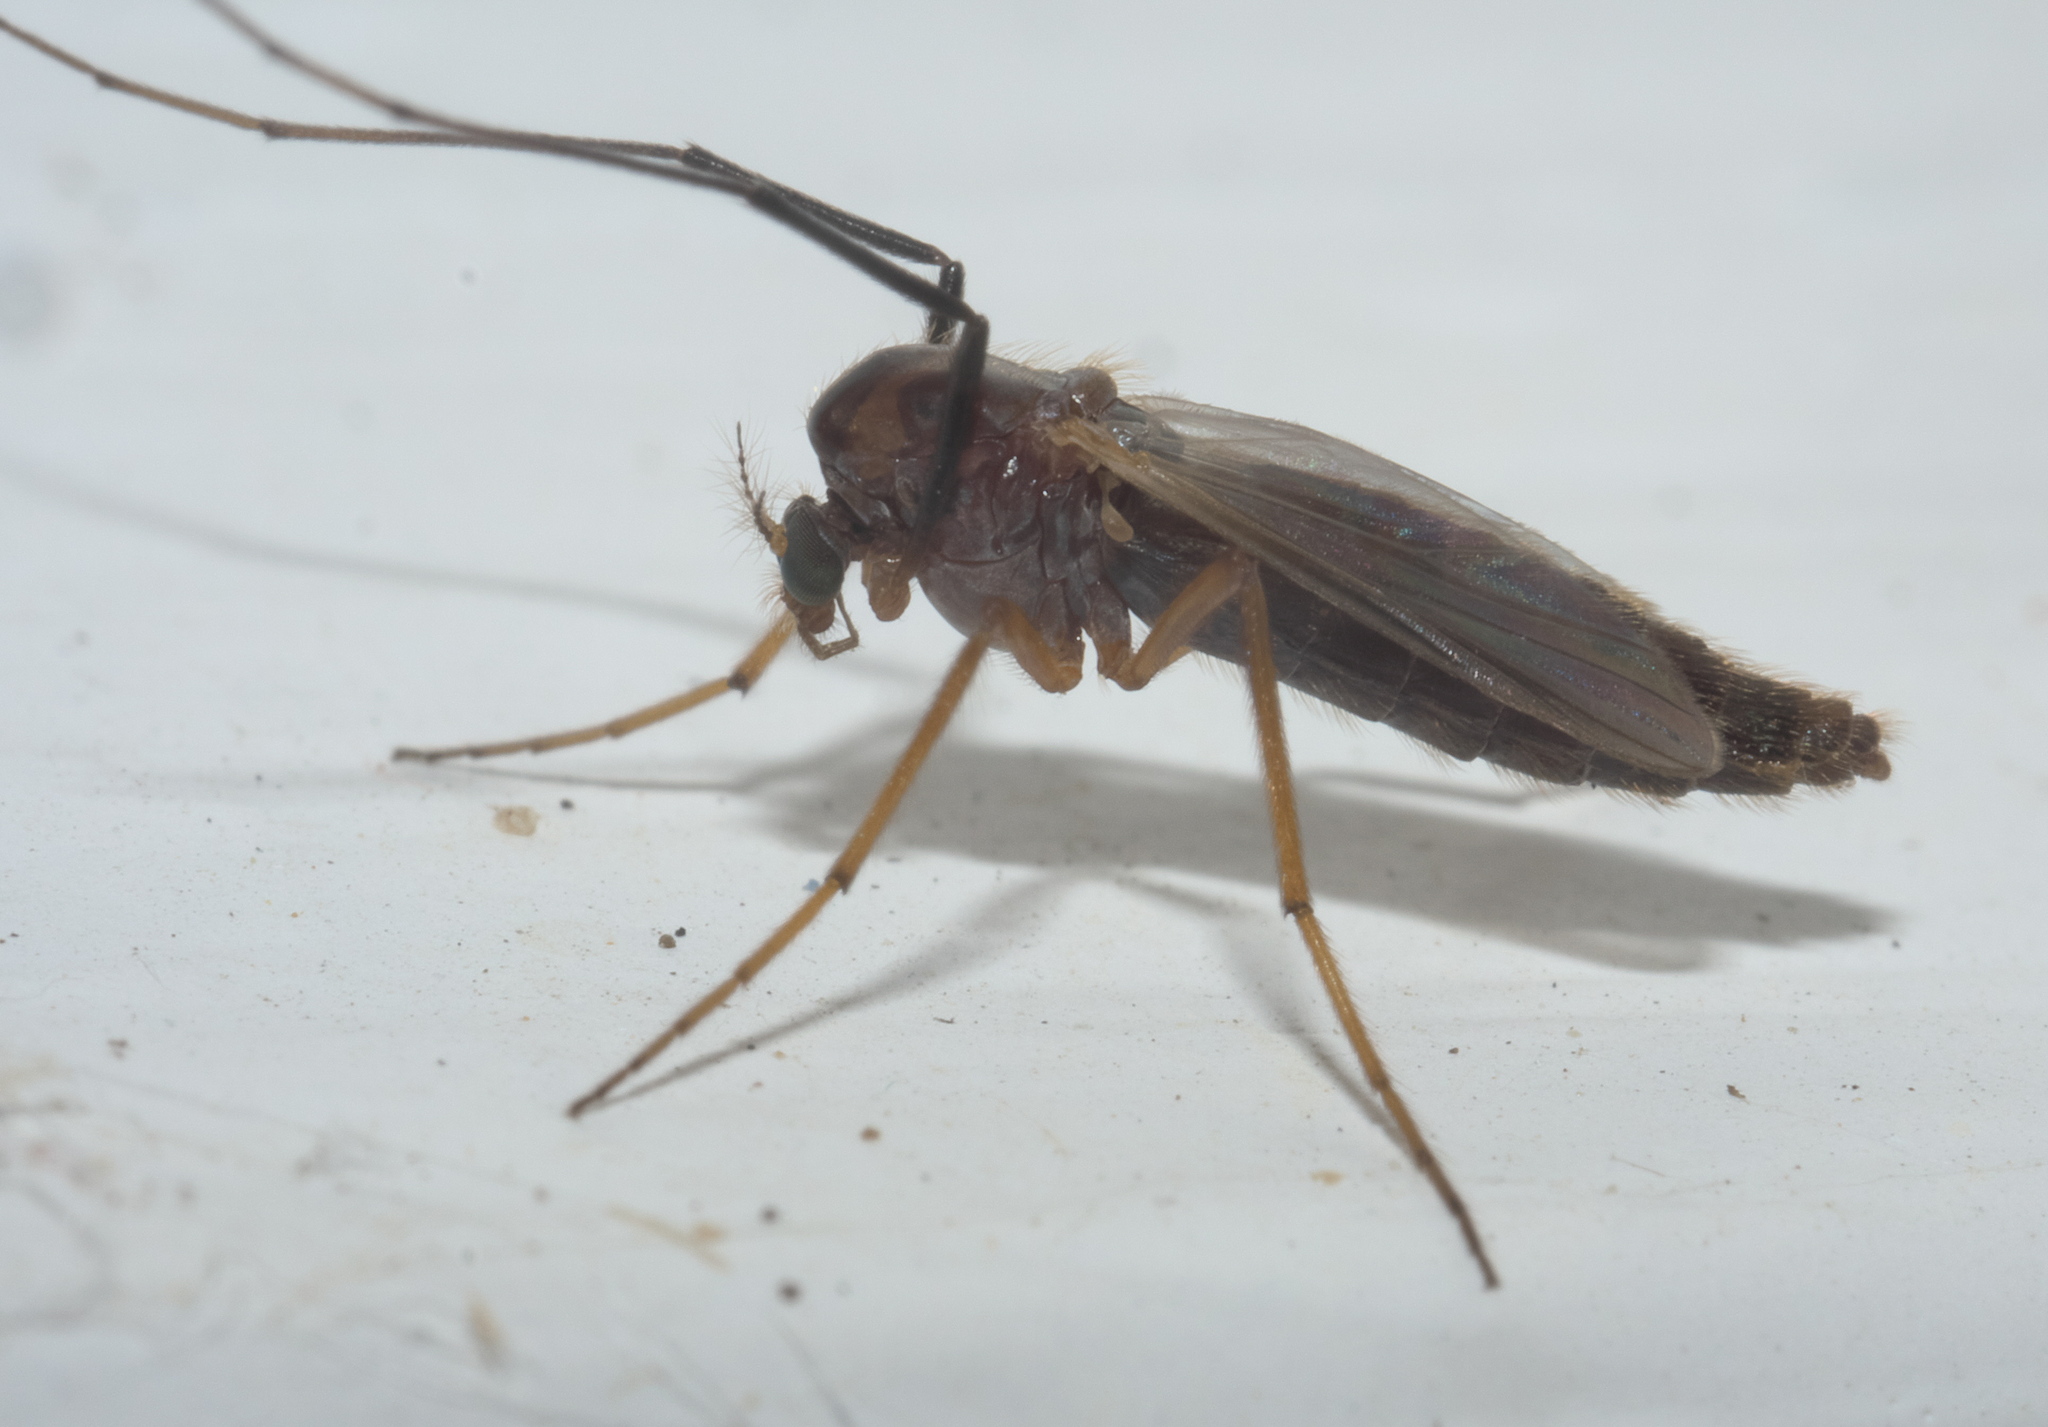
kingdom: Animalia
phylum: Arthropoda
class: Insecta
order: Diptera
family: Chironomidae
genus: Glyptotendipes
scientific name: Glyptotendipes testaceus
